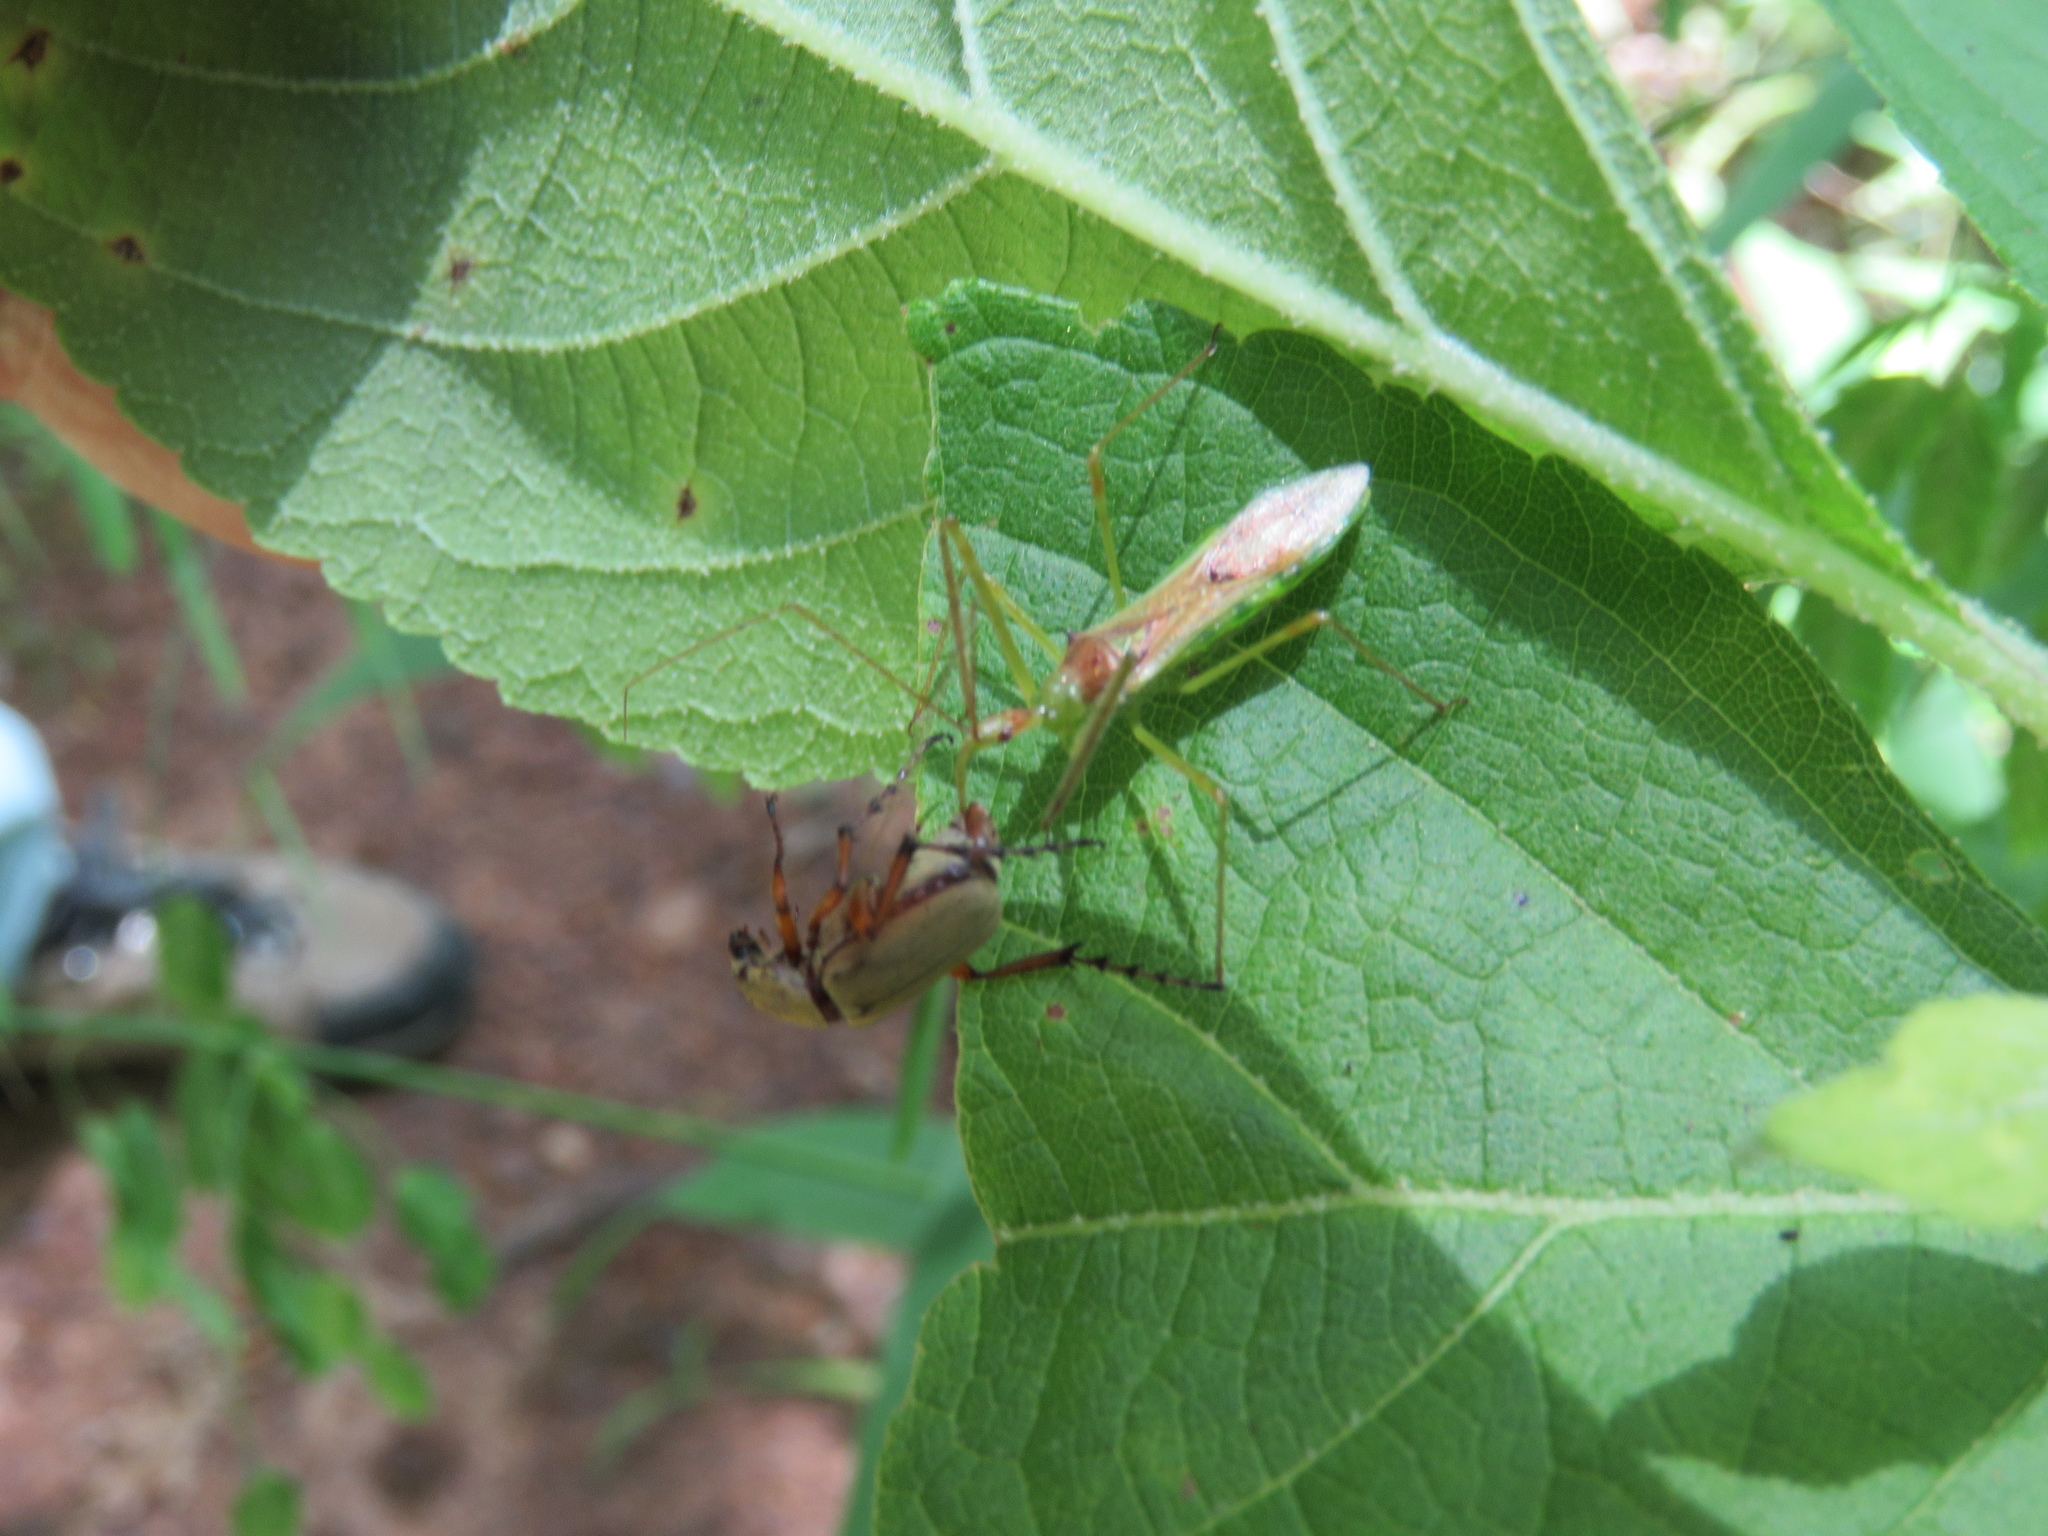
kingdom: Animalia
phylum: Arthropoda
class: Insecta
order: Hemiptera
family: Reduviidae
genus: Zelus
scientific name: Zelus luridus
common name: Pale green assassin bug
